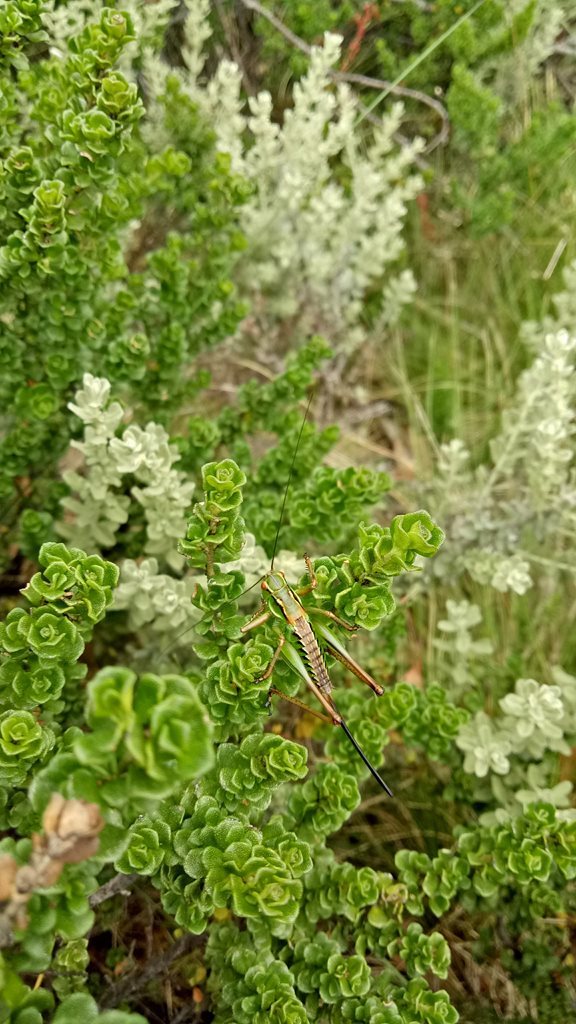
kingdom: Animalia
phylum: Arthropoda
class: Insecta
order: Orthoptera
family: Tettigoniidae
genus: Chlorodectes
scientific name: Chlorodectes montanus
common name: Montane green shield-back
